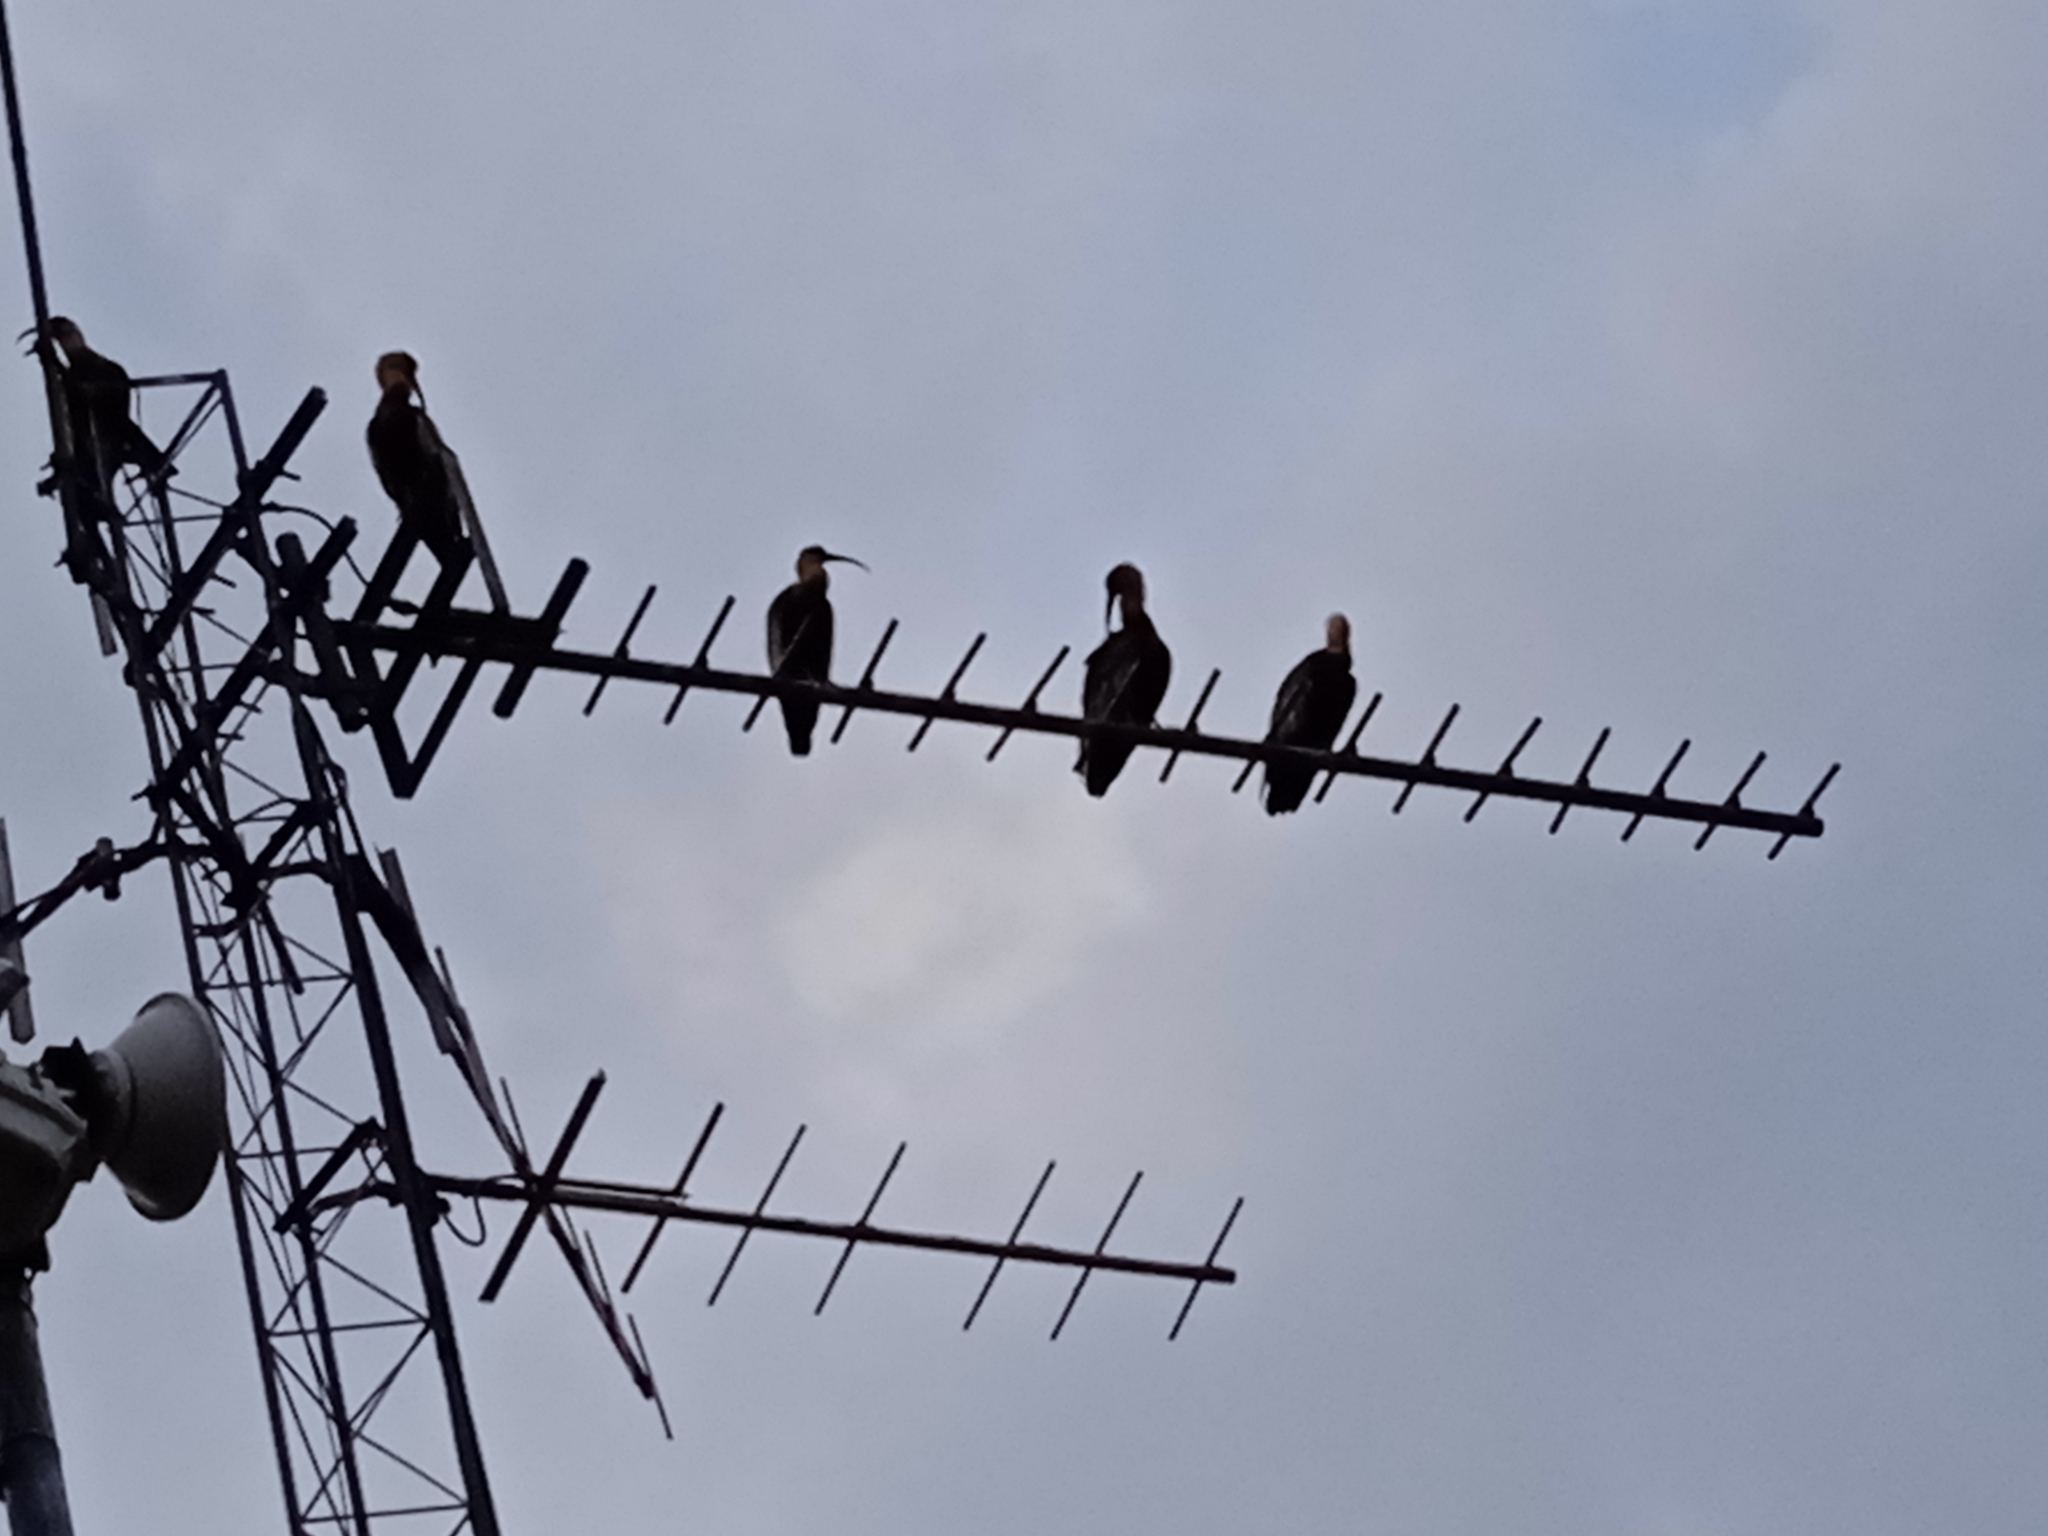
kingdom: Animalia
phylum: Chordata
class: Aves
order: Pelecaniformes
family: Threskiornithidae
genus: Theristicus
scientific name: Theristicus caudatus
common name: Buff-necked ibis
